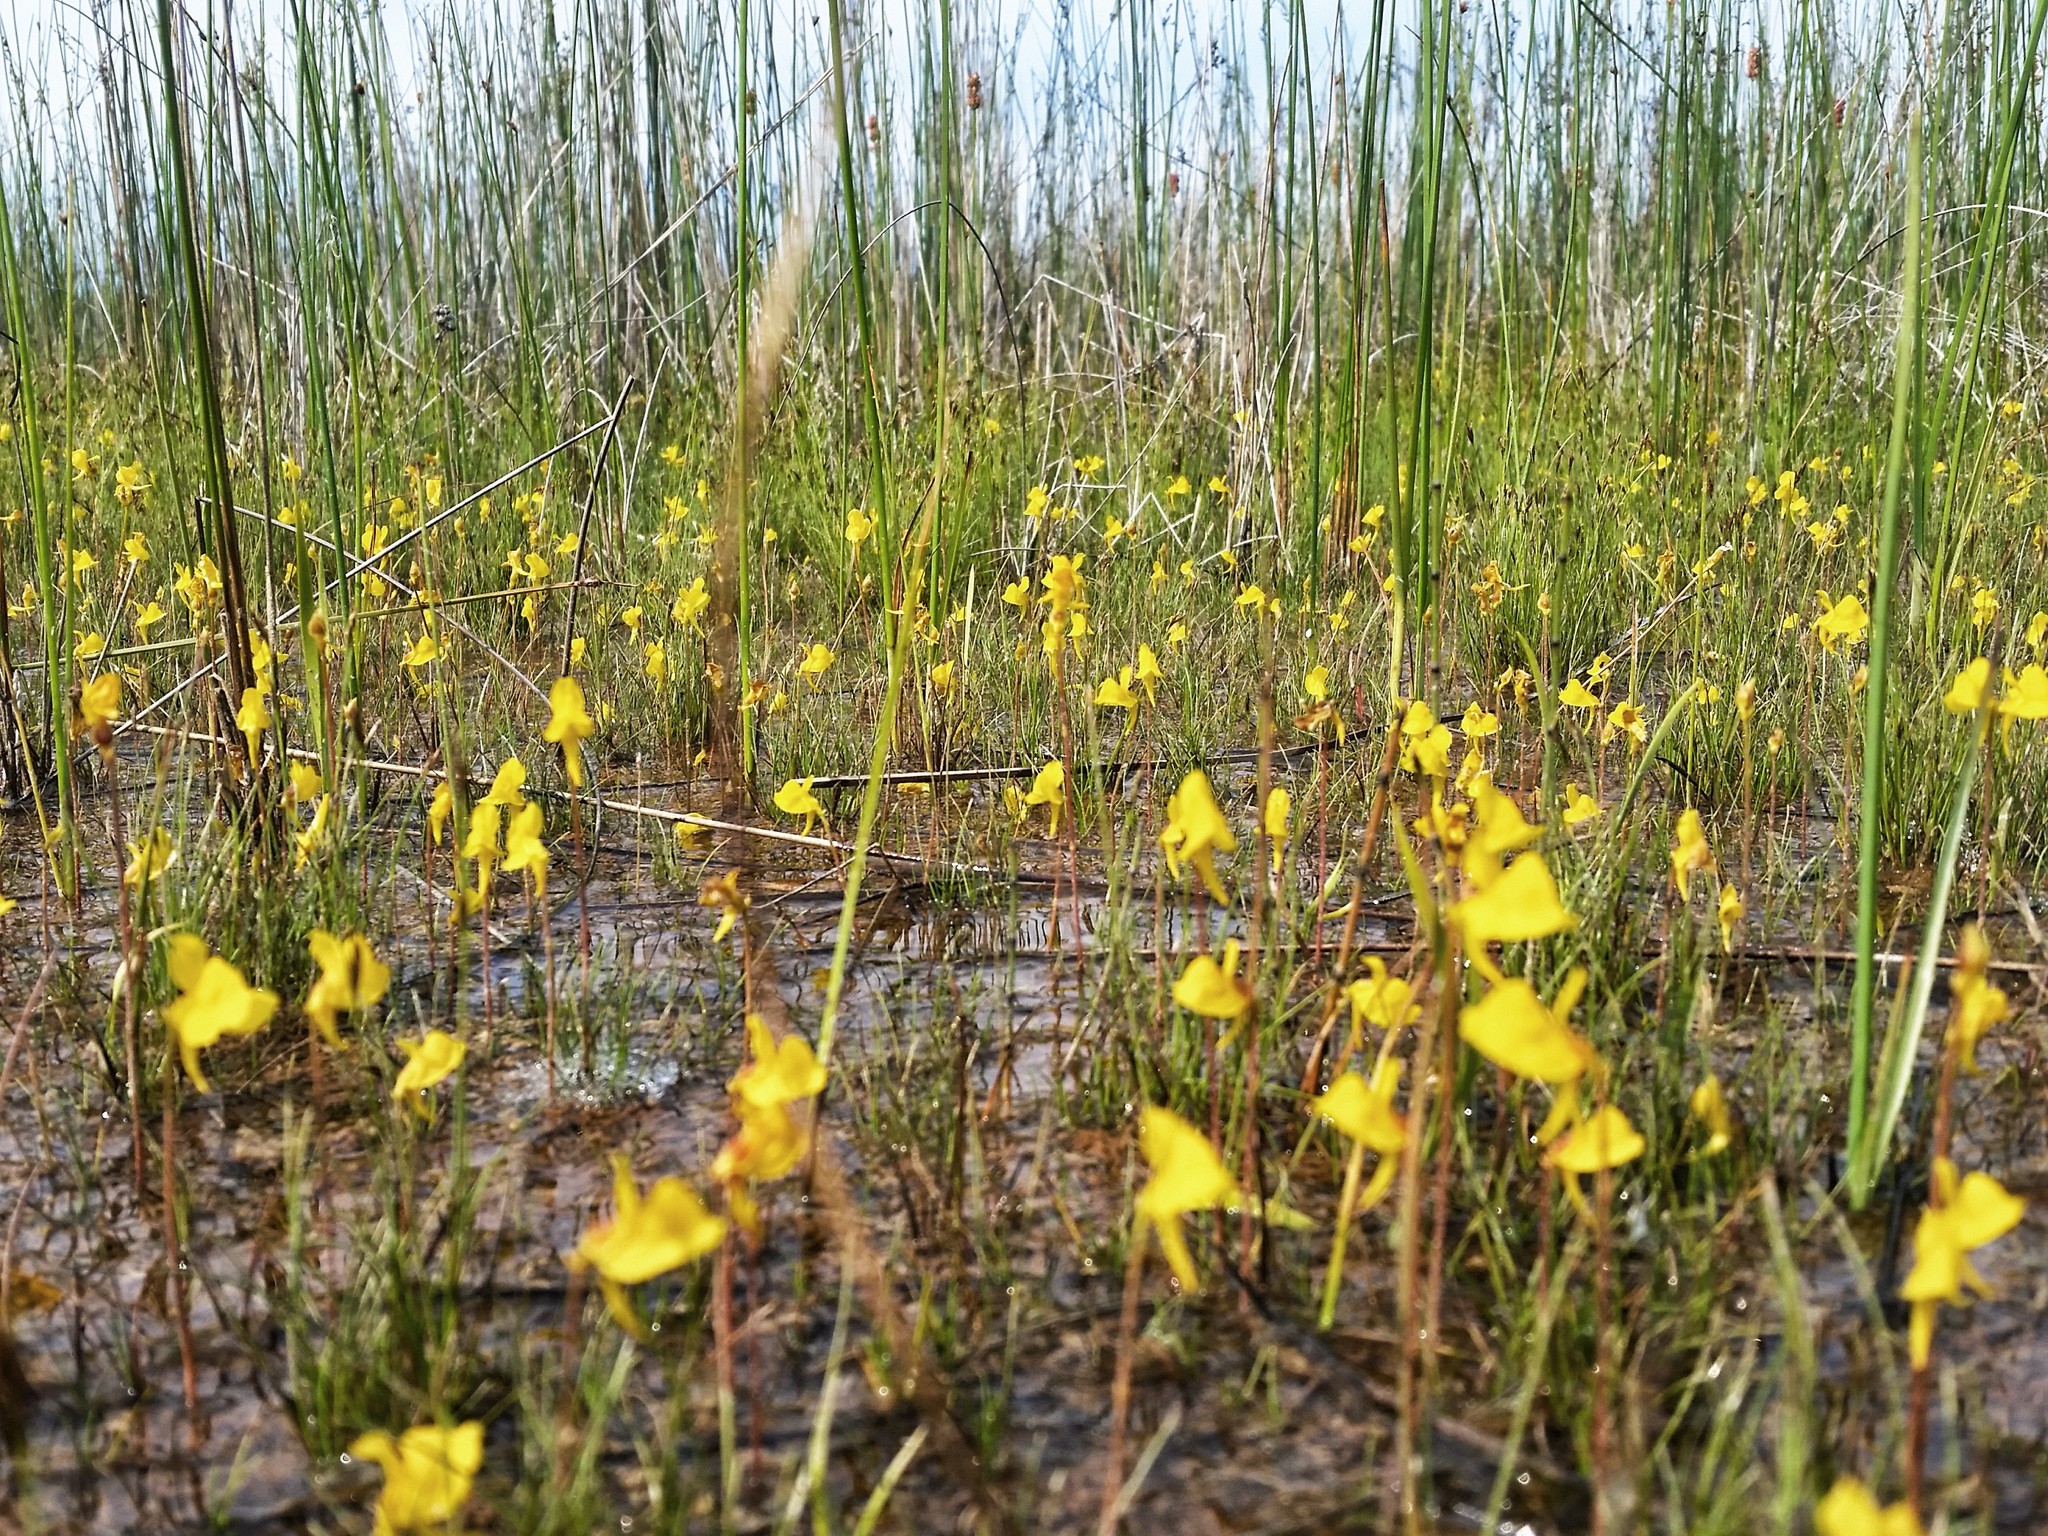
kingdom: Plantae
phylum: Tracheophyta
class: Magnoliopsida
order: Lamiales
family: Lentibulariaceae
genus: Utricularia
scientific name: Utricularia cornuta
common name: Horned bladderwort
